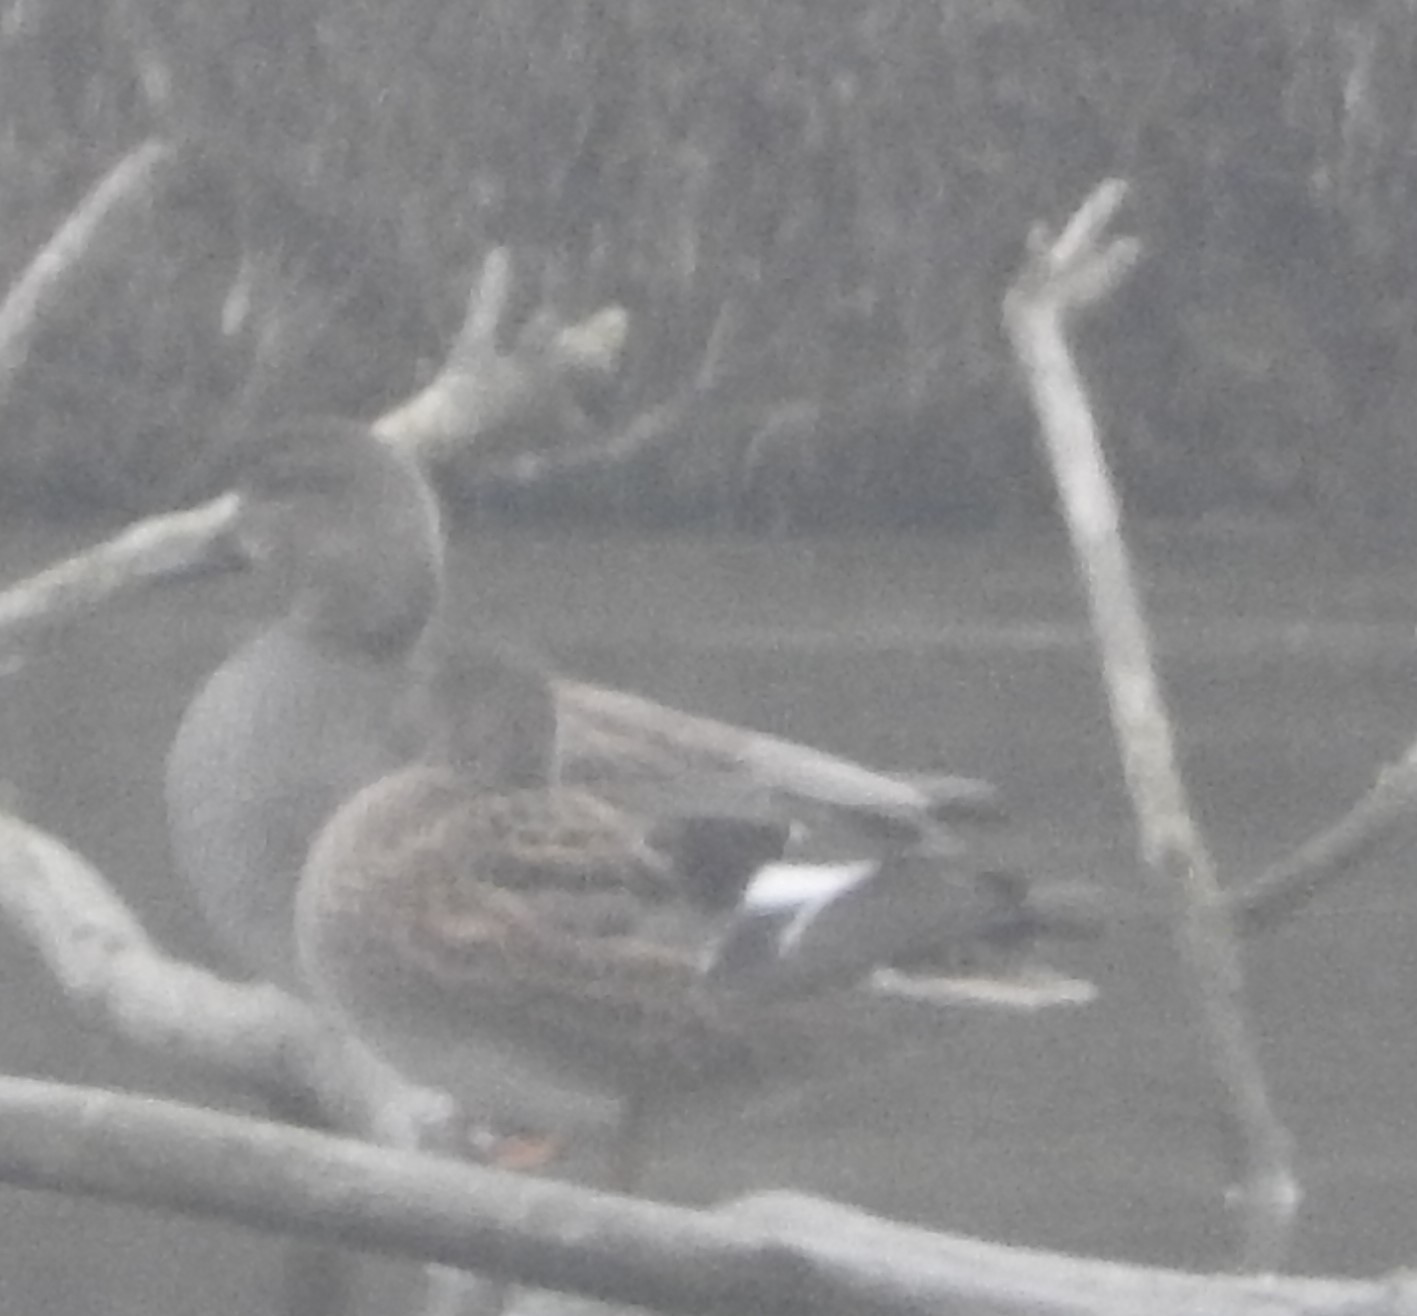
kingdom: Animalia
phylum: Chordata
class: Aves
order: Anseriformes
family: Anatidae
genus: Mareca
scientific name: Mareca strepera
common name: Gadwall
